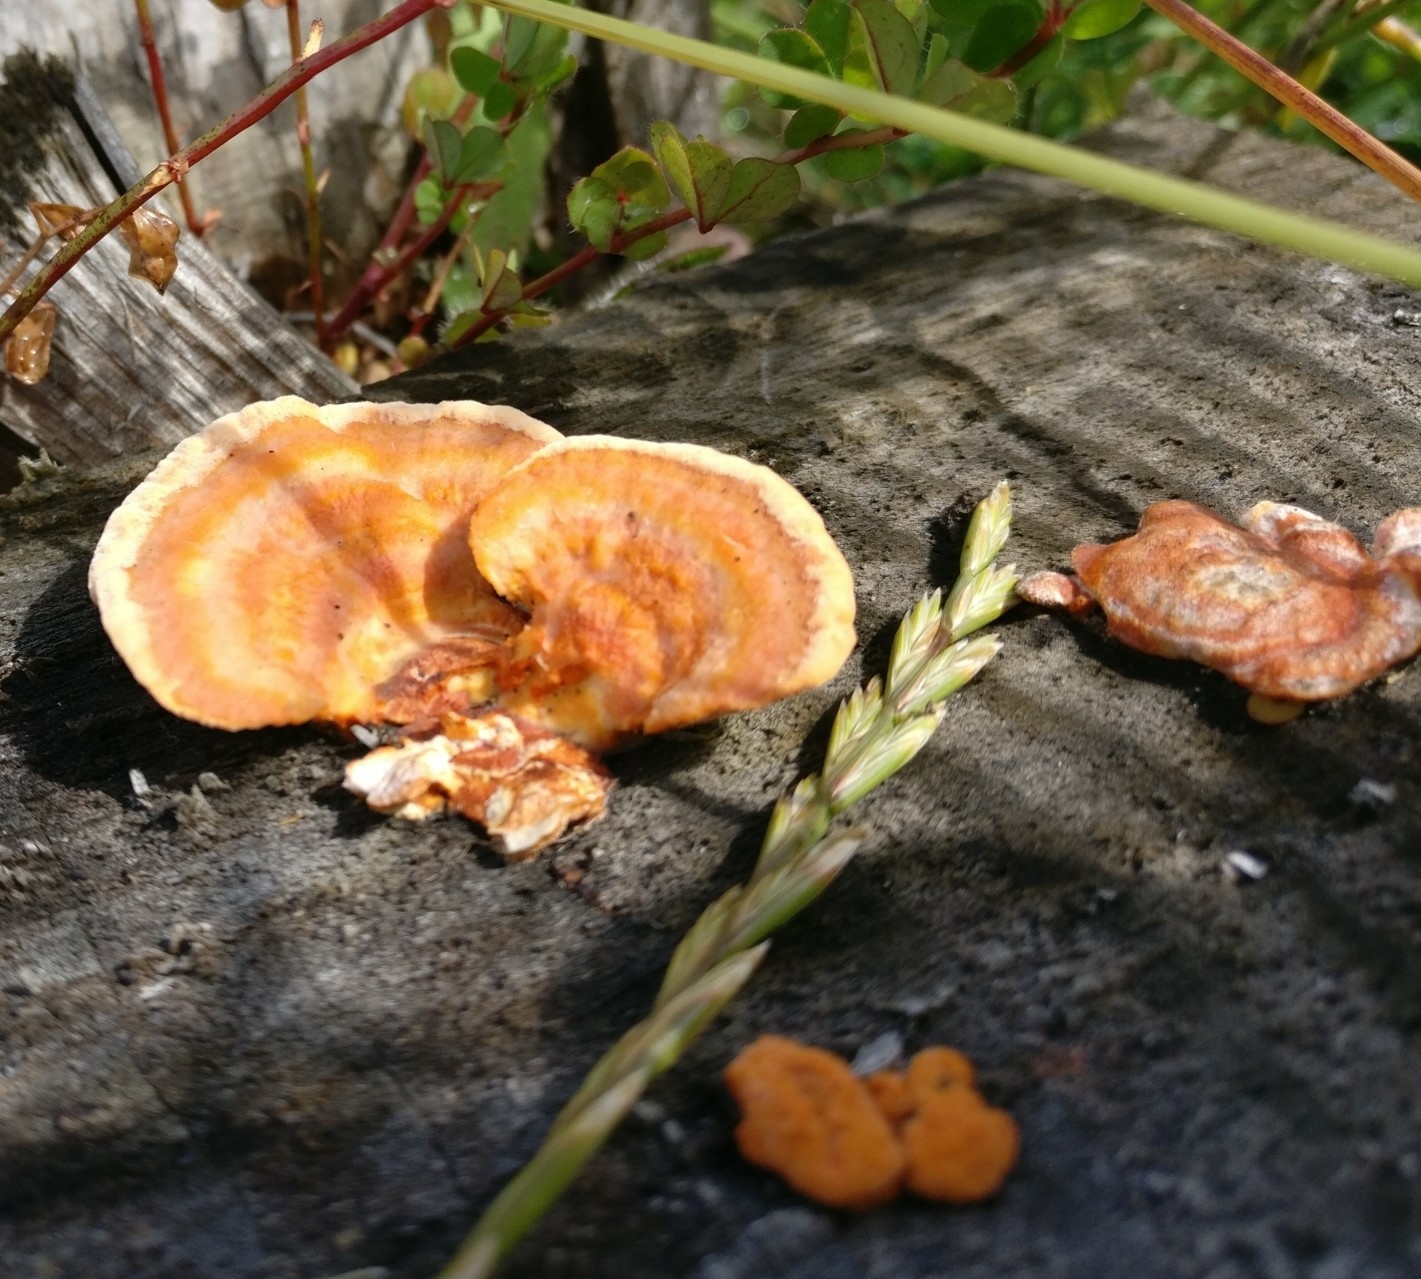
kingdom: Fungi
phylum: Basidiomycota
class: Agaricomycetes
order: Polyporales
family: Polyporaceae
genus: Trametes
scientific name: Trametes coccinea
